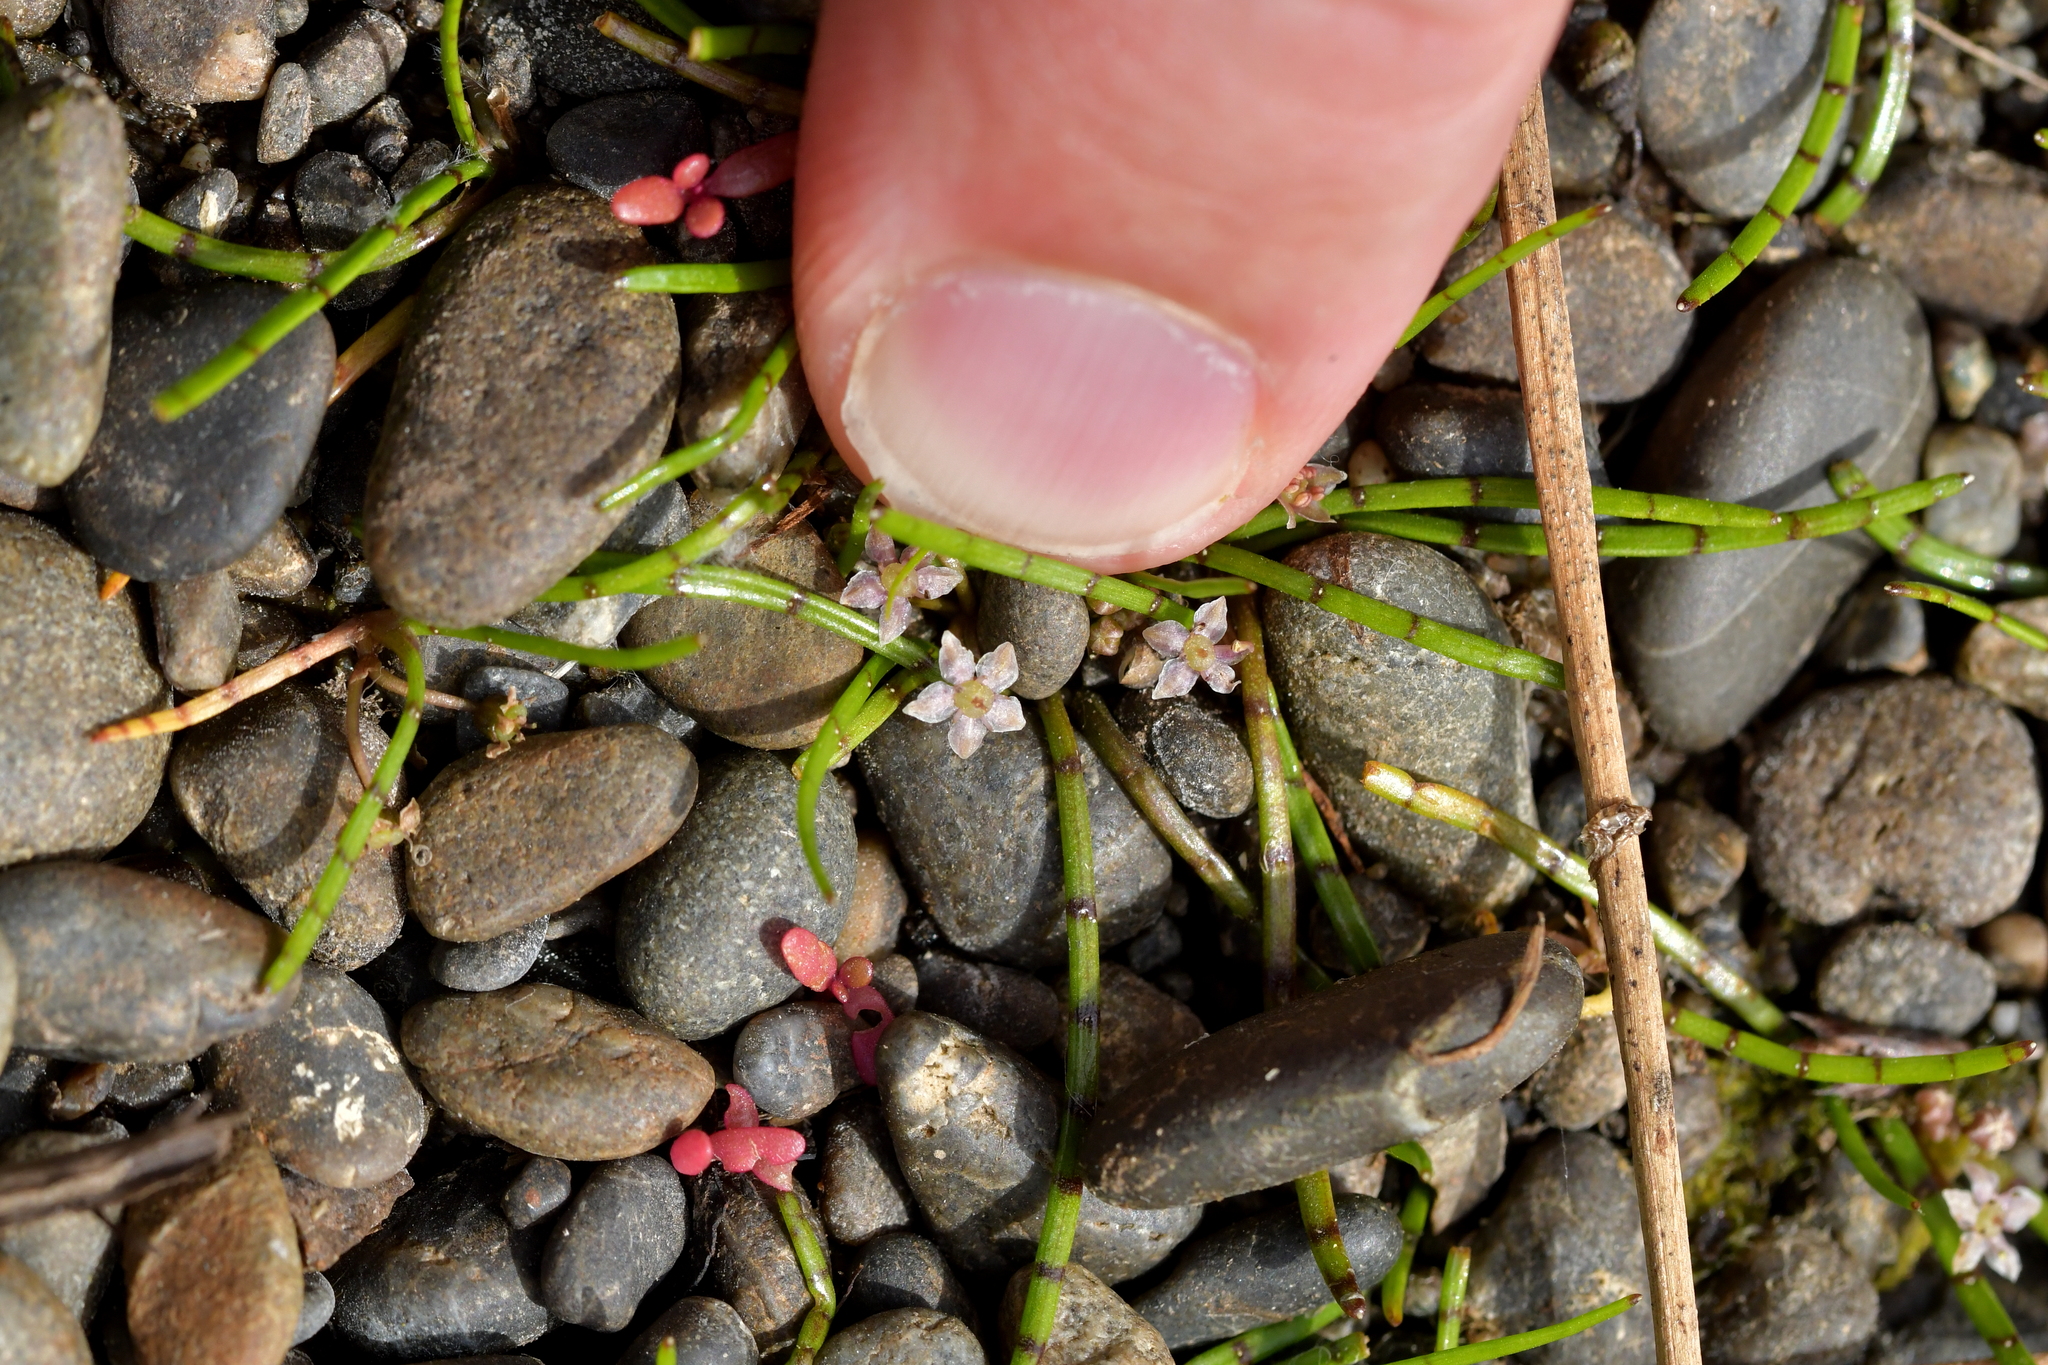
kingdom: Plantae
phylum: Tracheophyta
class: Magnoliopsida
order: Apiales
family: Apiaceae
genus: Lilaeopsis
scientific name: Lilaeopsis novae-zelandiae
